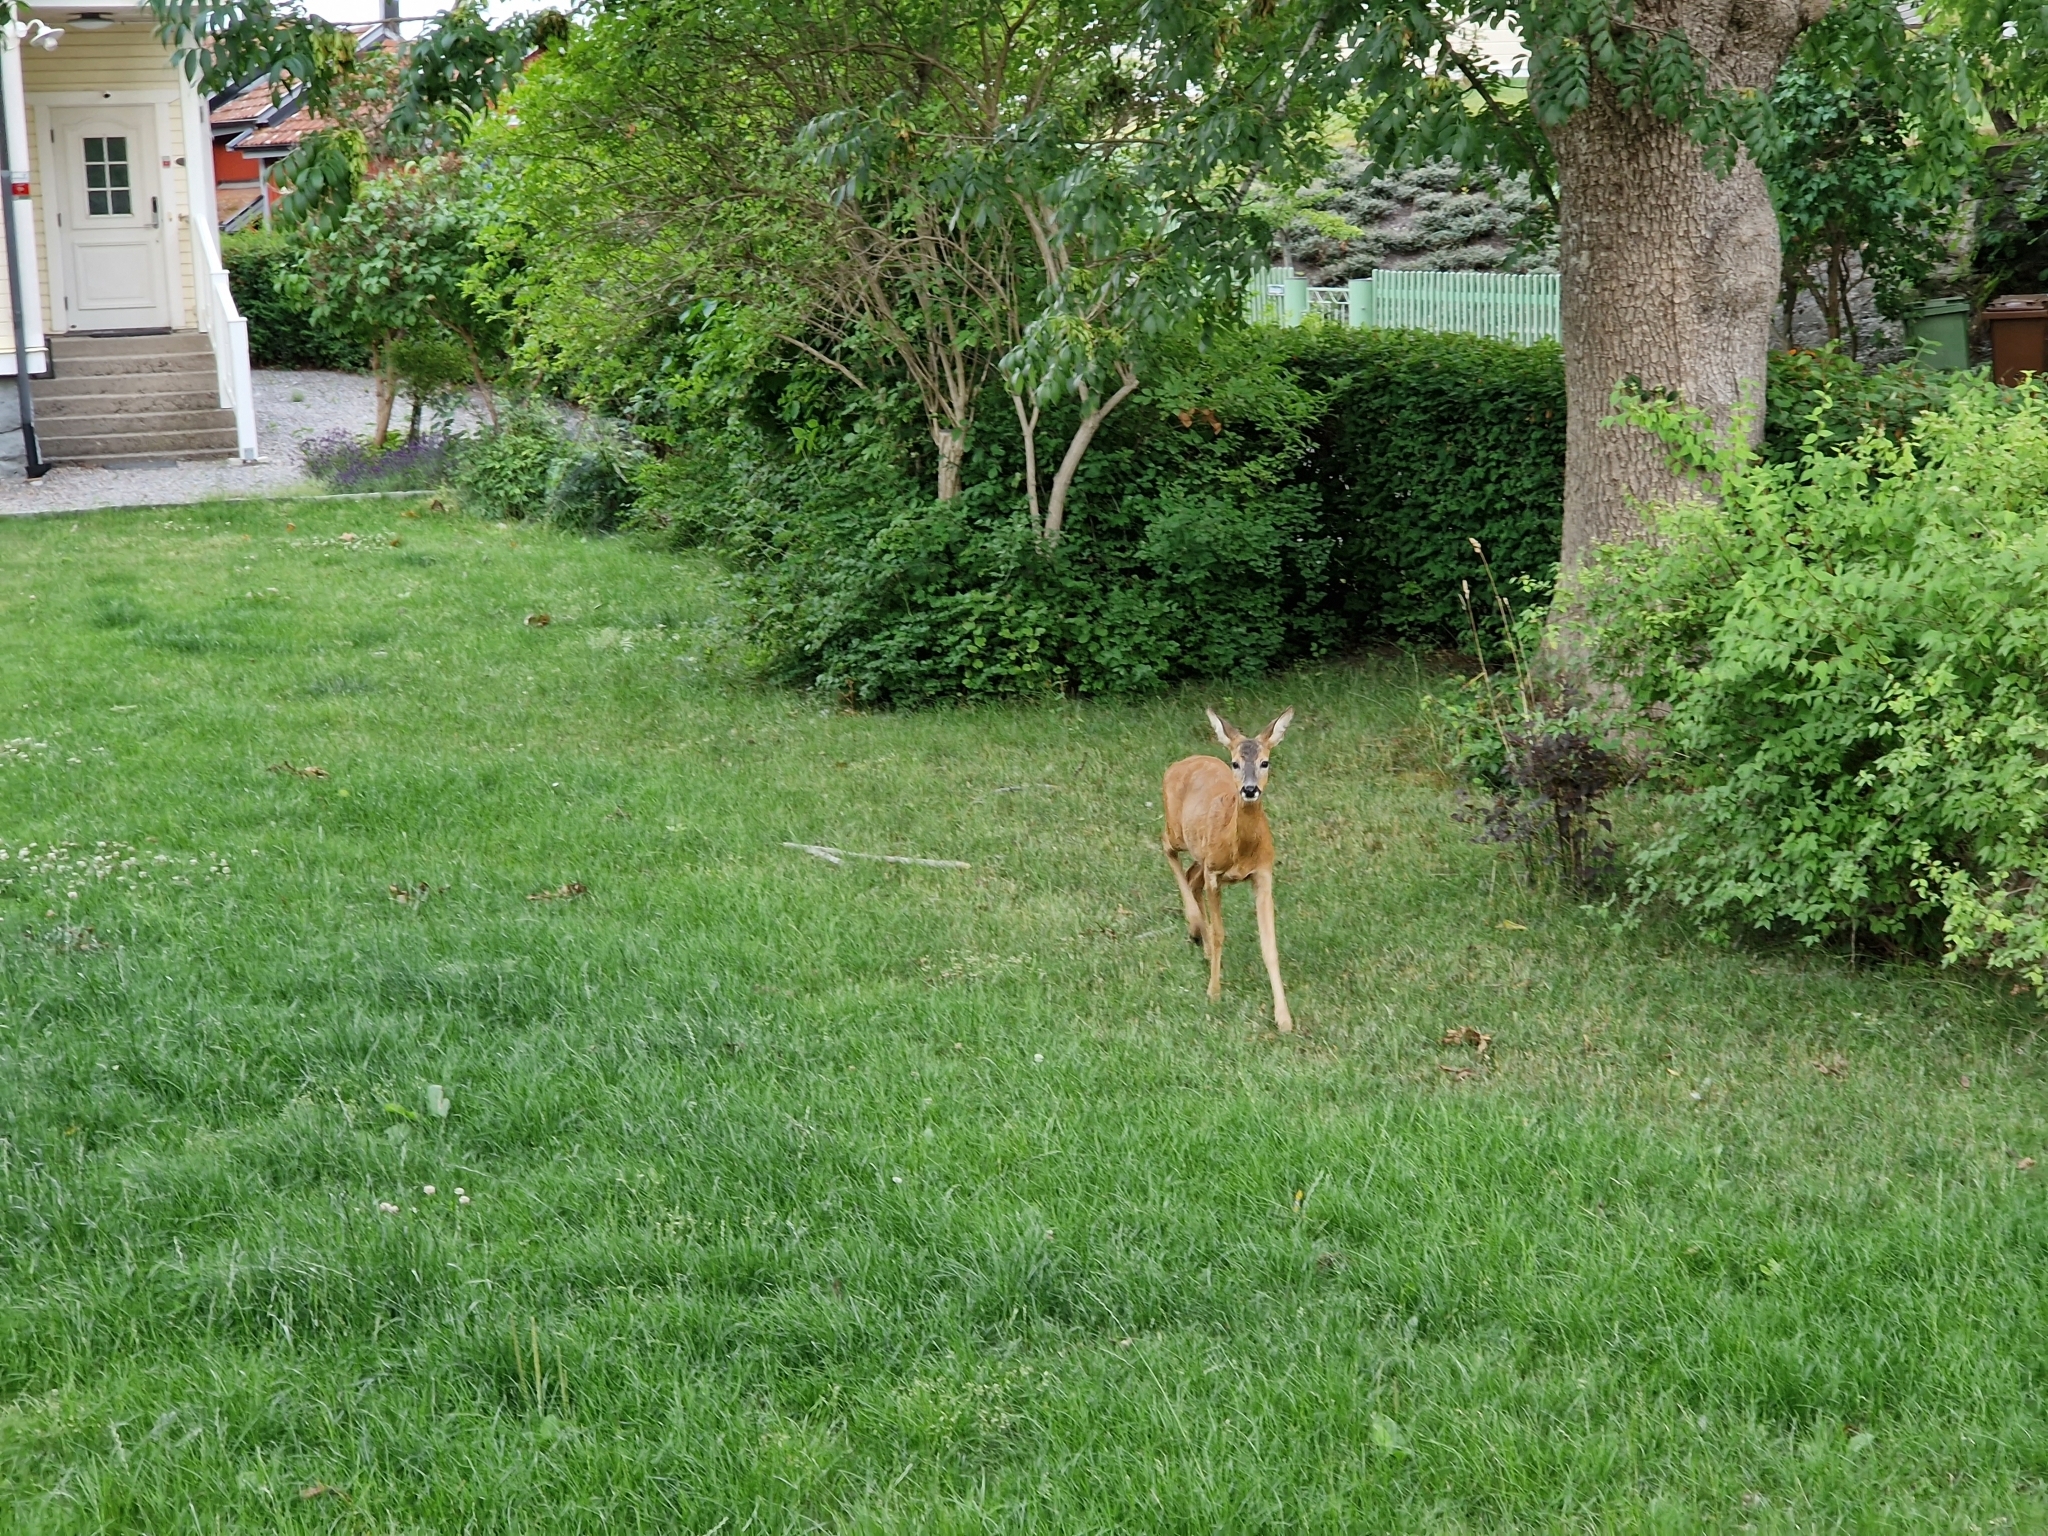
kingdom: Animalia
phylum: Chordata
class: Mammalia
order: Artiodactyla
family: Cervidae
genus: Capreolus
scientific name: Capreolus capreolus
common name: Western roe deer
